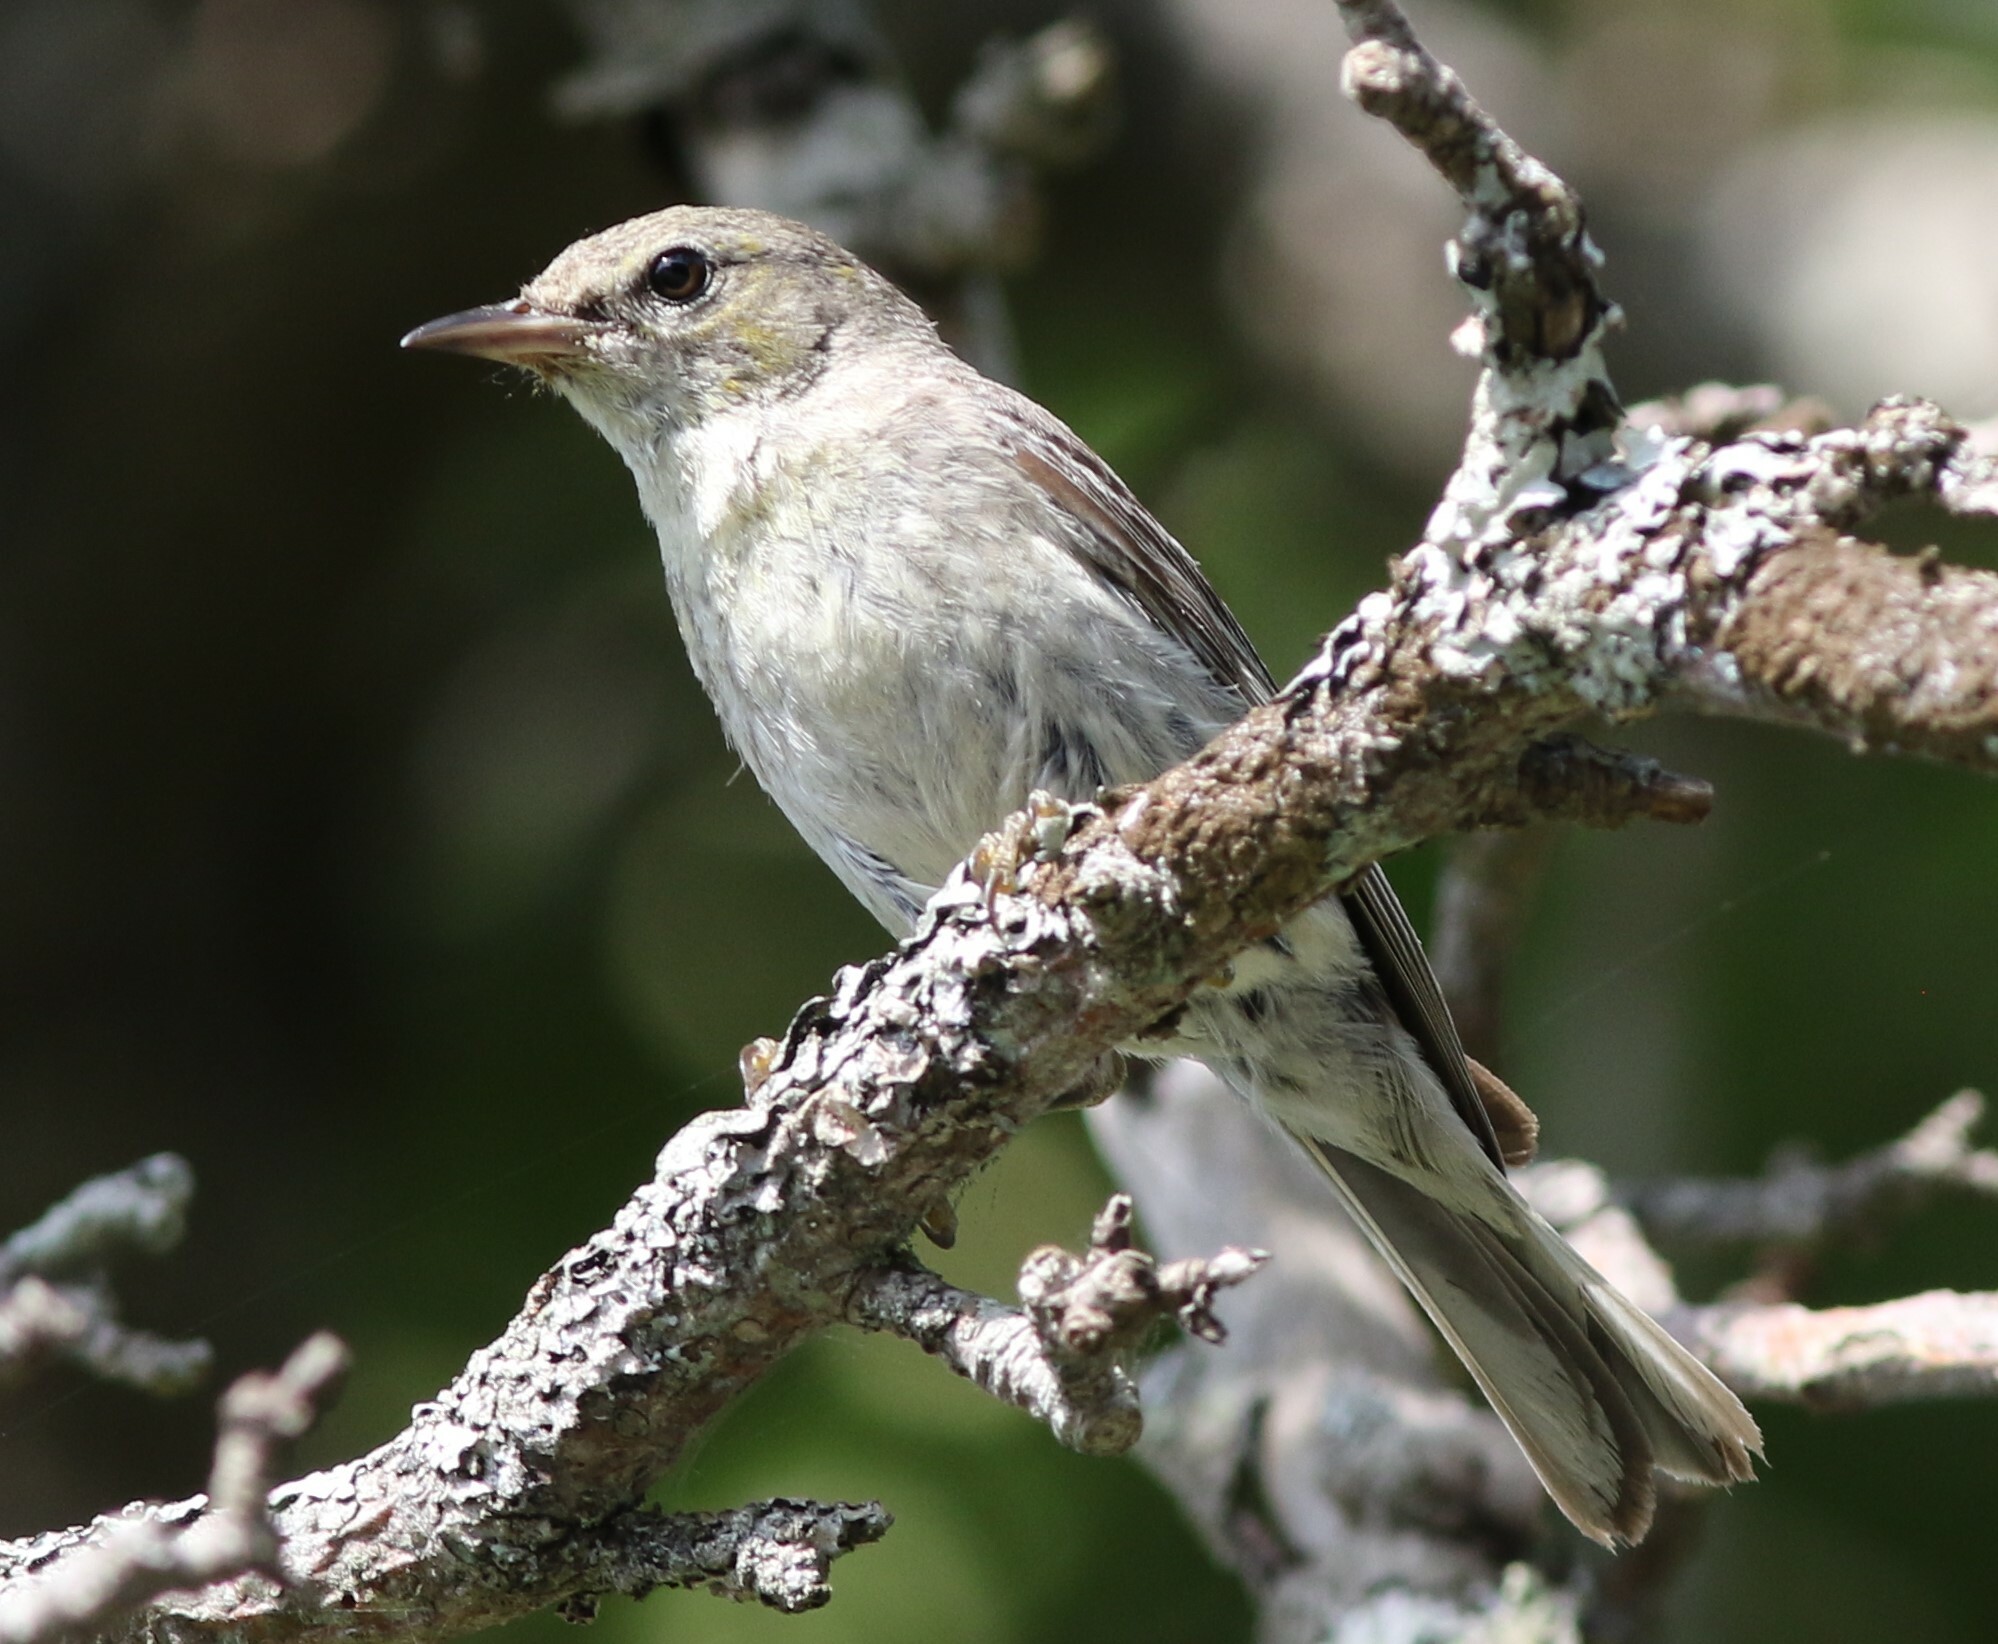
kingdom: Animalia
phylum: Chordata
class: Aves
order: Passeriformes
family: Parulidae
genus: Setophaga
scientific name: Setophaga pinus
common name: Pine warbler
